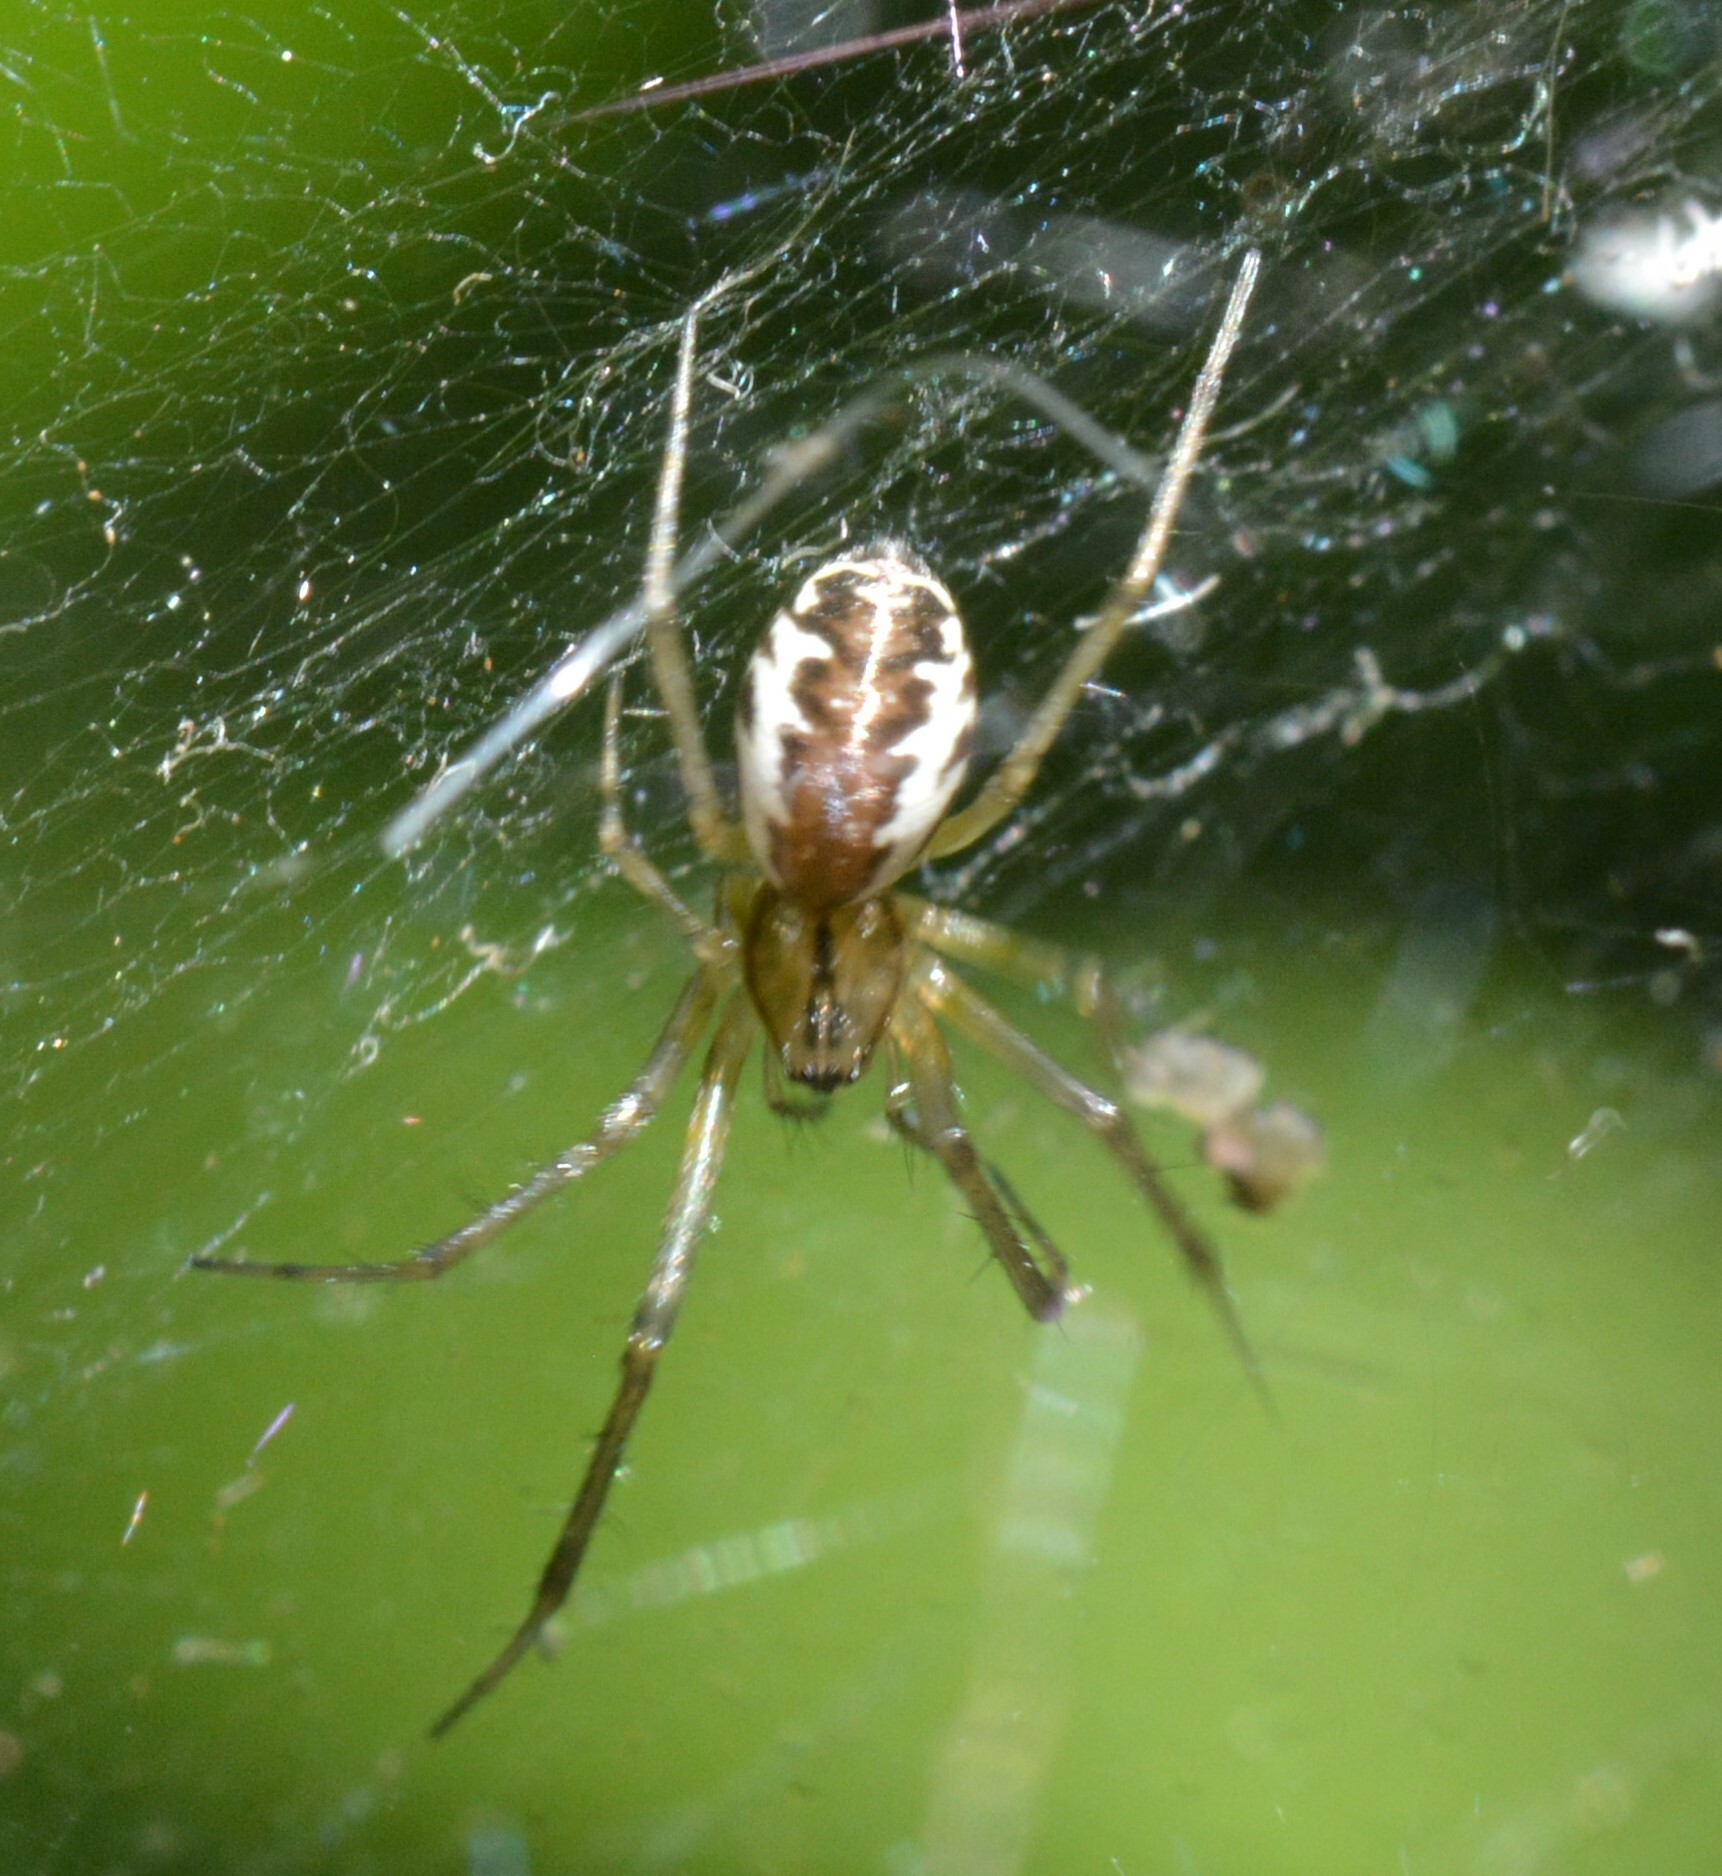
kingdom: Animalia
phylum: Arthropoda
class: Arachnida
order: Araneae
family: Linyphiidae
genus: Linyphia
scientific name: Linyphia triangularis
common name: Money spider
